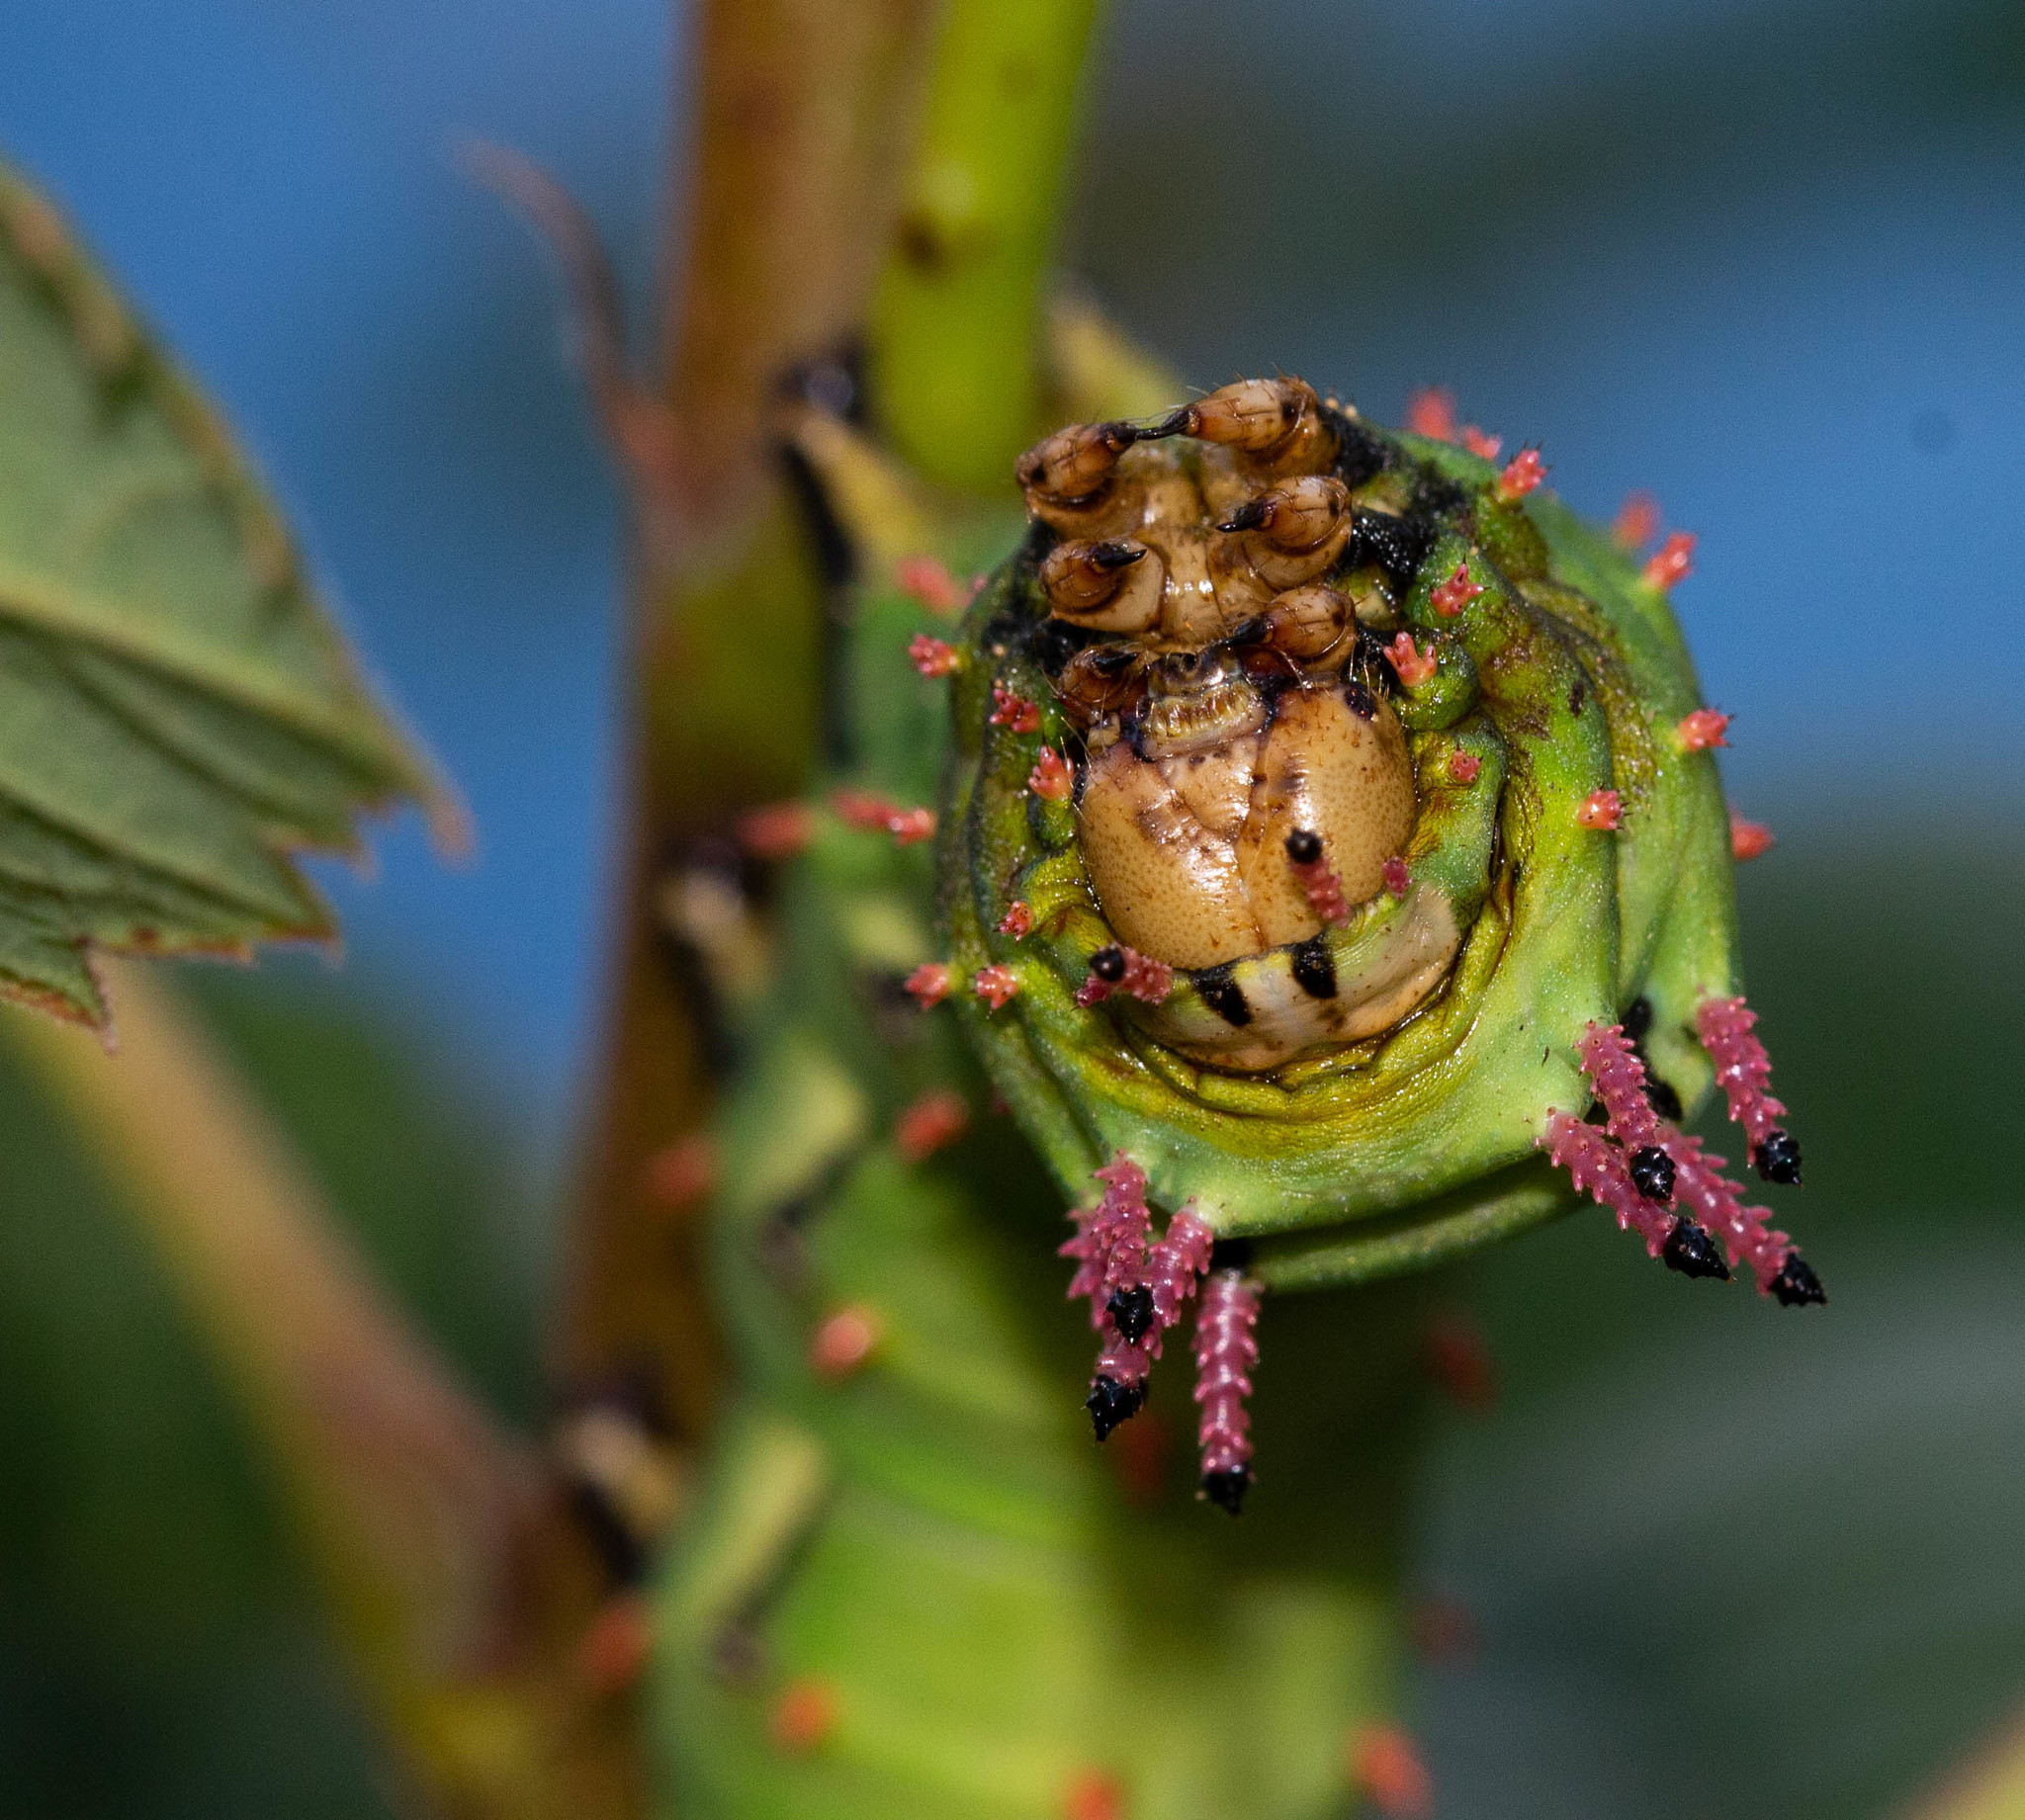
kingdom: Animalia
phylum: Arthropoda
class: Insecta
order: Lepidoptera
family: Saturniidae
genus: Citheronia
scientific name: Citheronia laocoon
